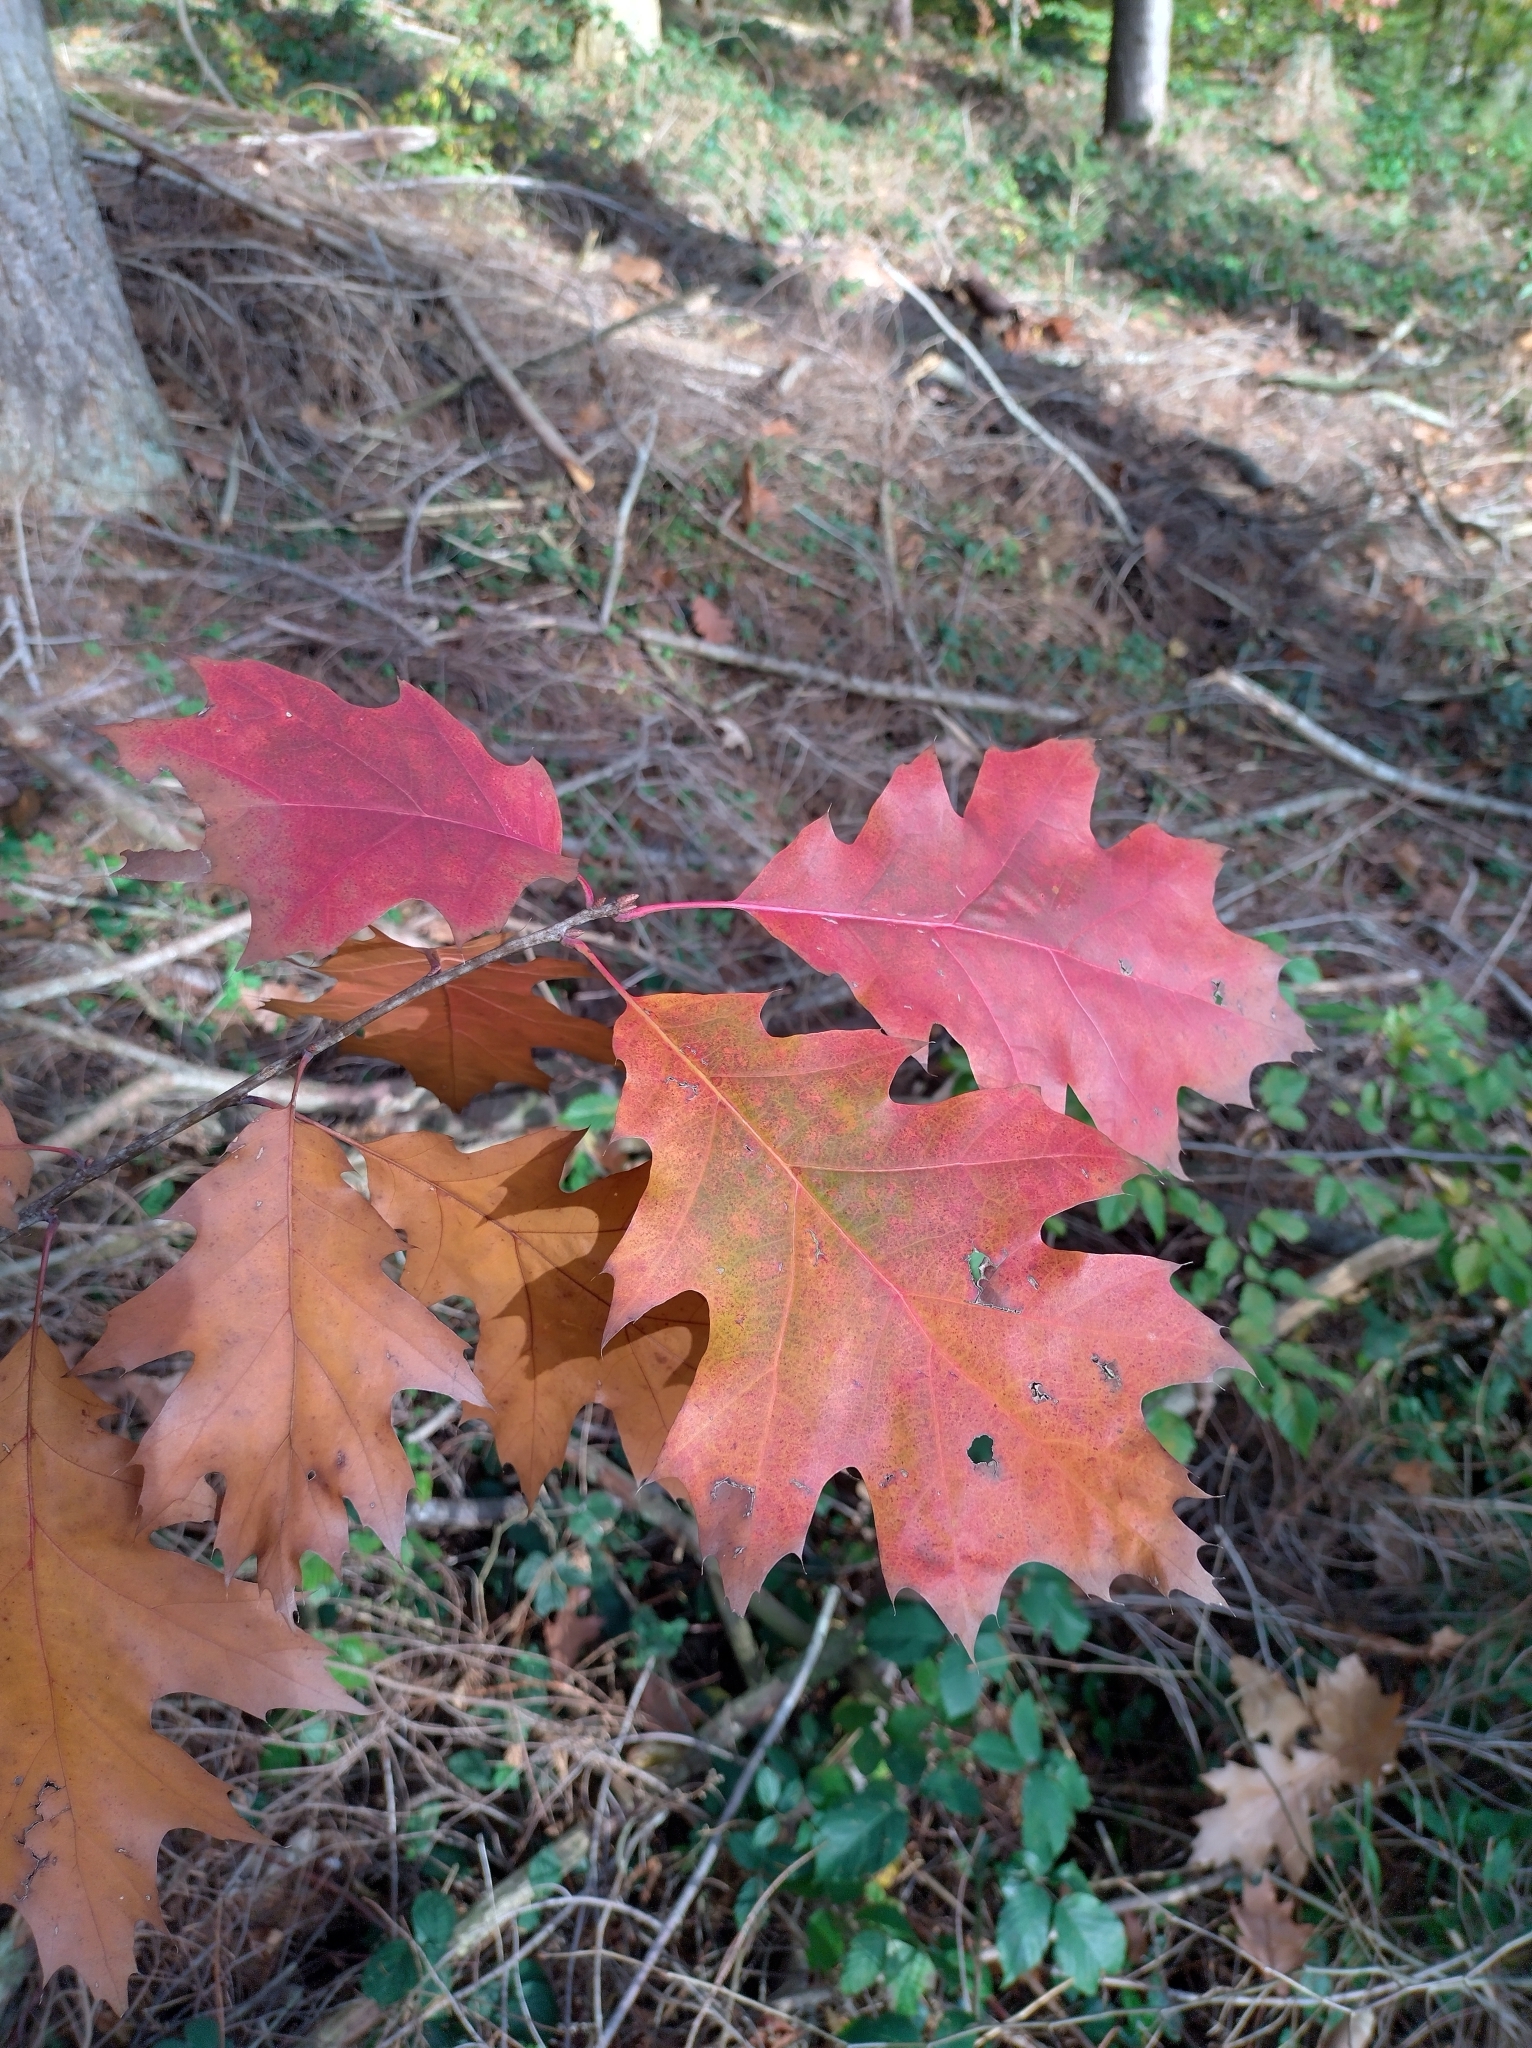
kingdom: Plantae
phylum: Tracheophyta
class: Magnoliopsida
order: Fagales
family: Fagaceae
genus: Quercus
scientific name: Quercus rubra
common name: Red oak
